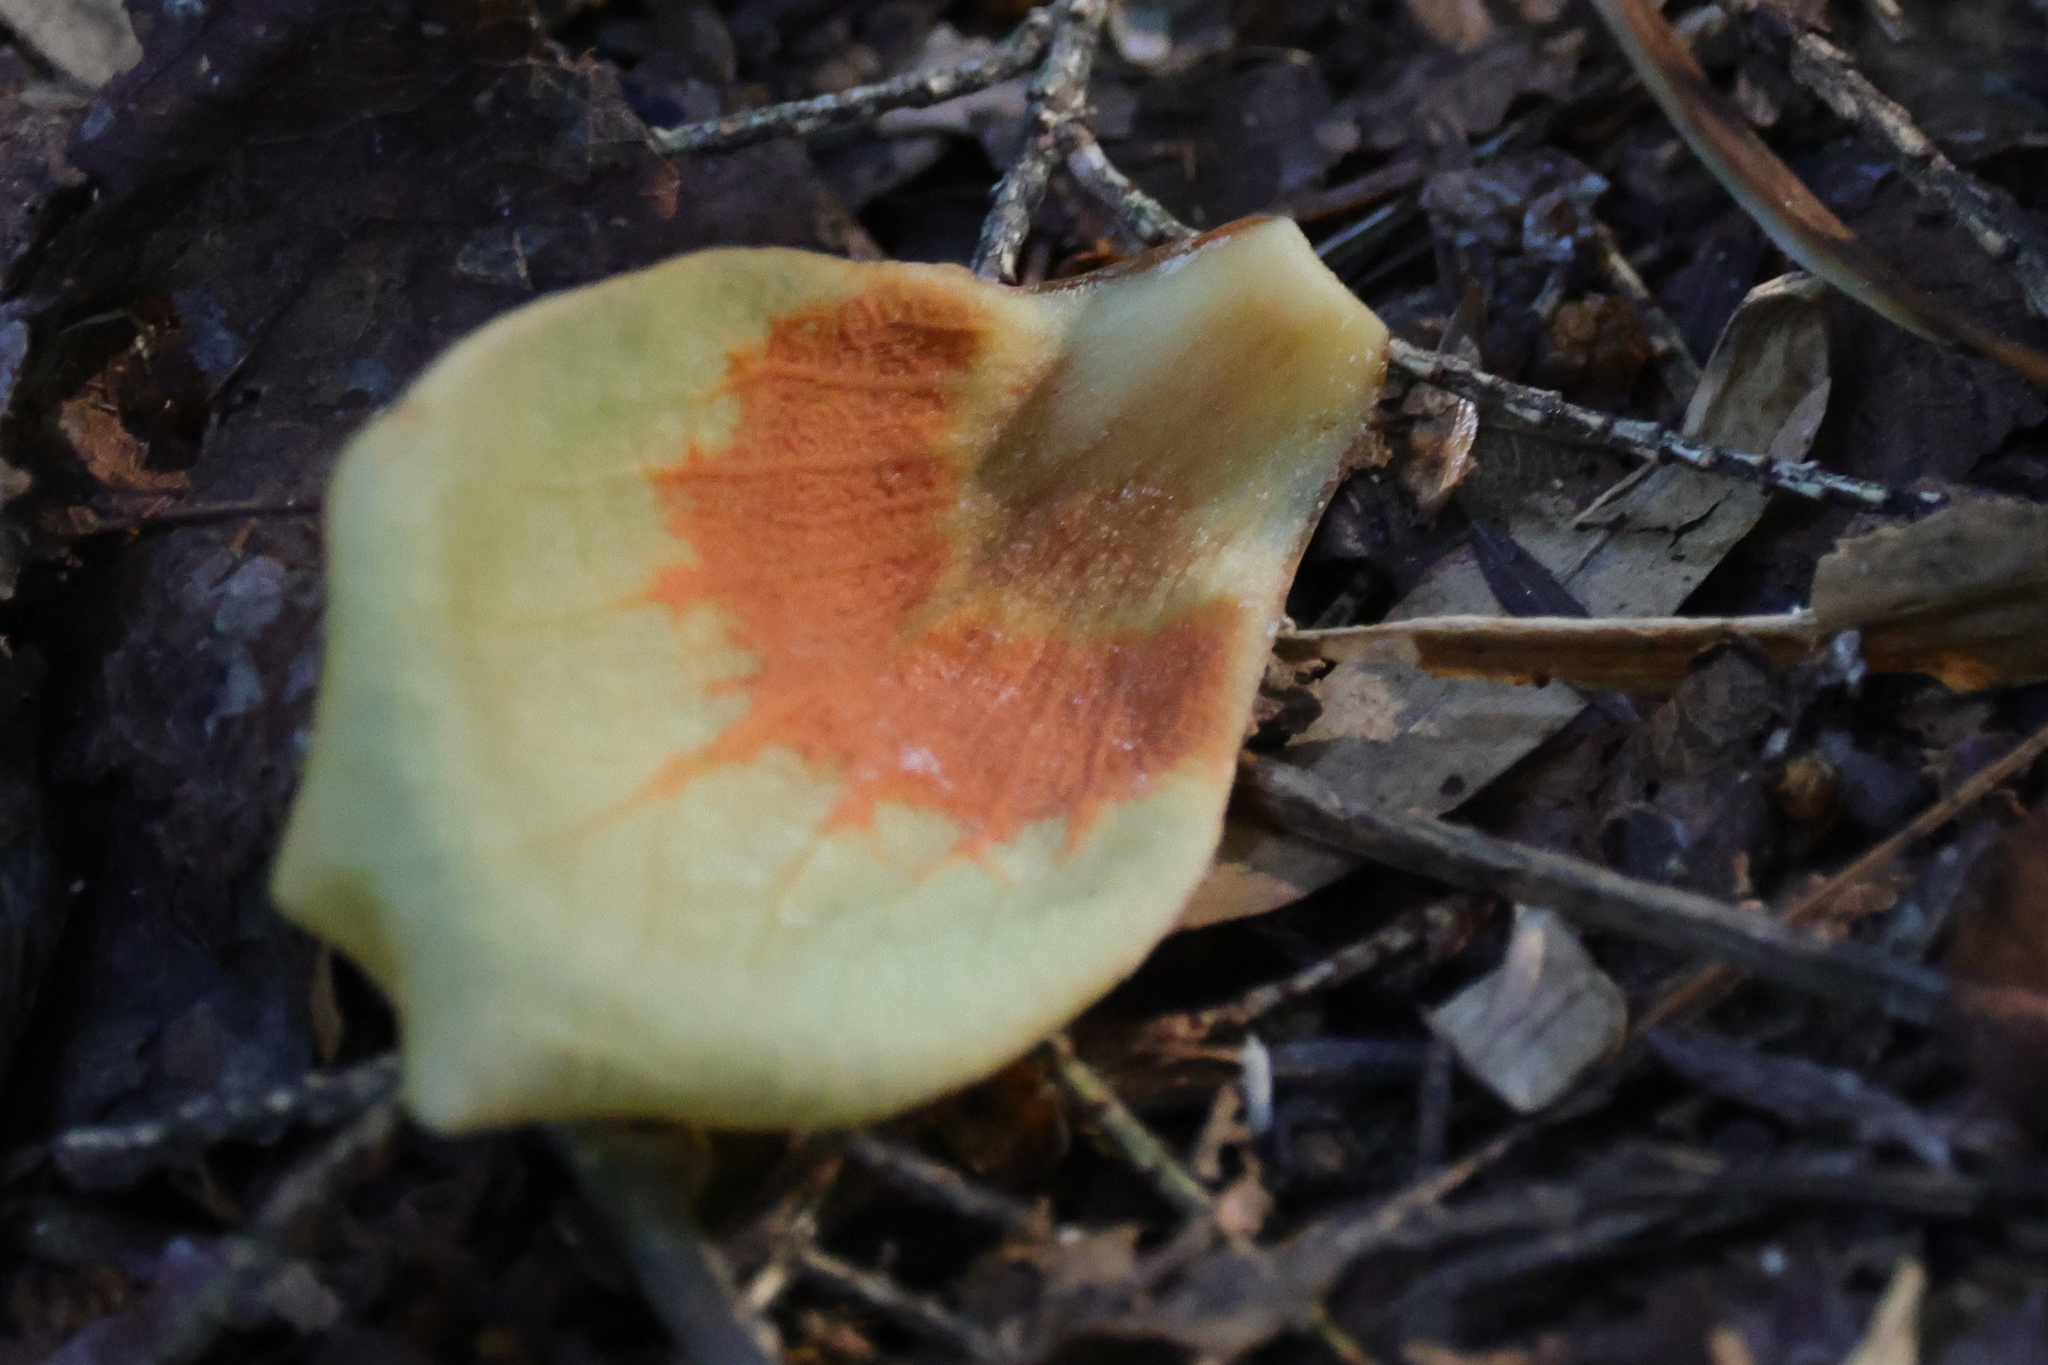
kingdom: Plantae
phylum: Tracheophyta
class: Magnoliopsida
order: Magnoliales
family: Magnoliaceae
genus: Liriodendron
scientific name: Liriodendron tulipifera
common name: Tulip tree
